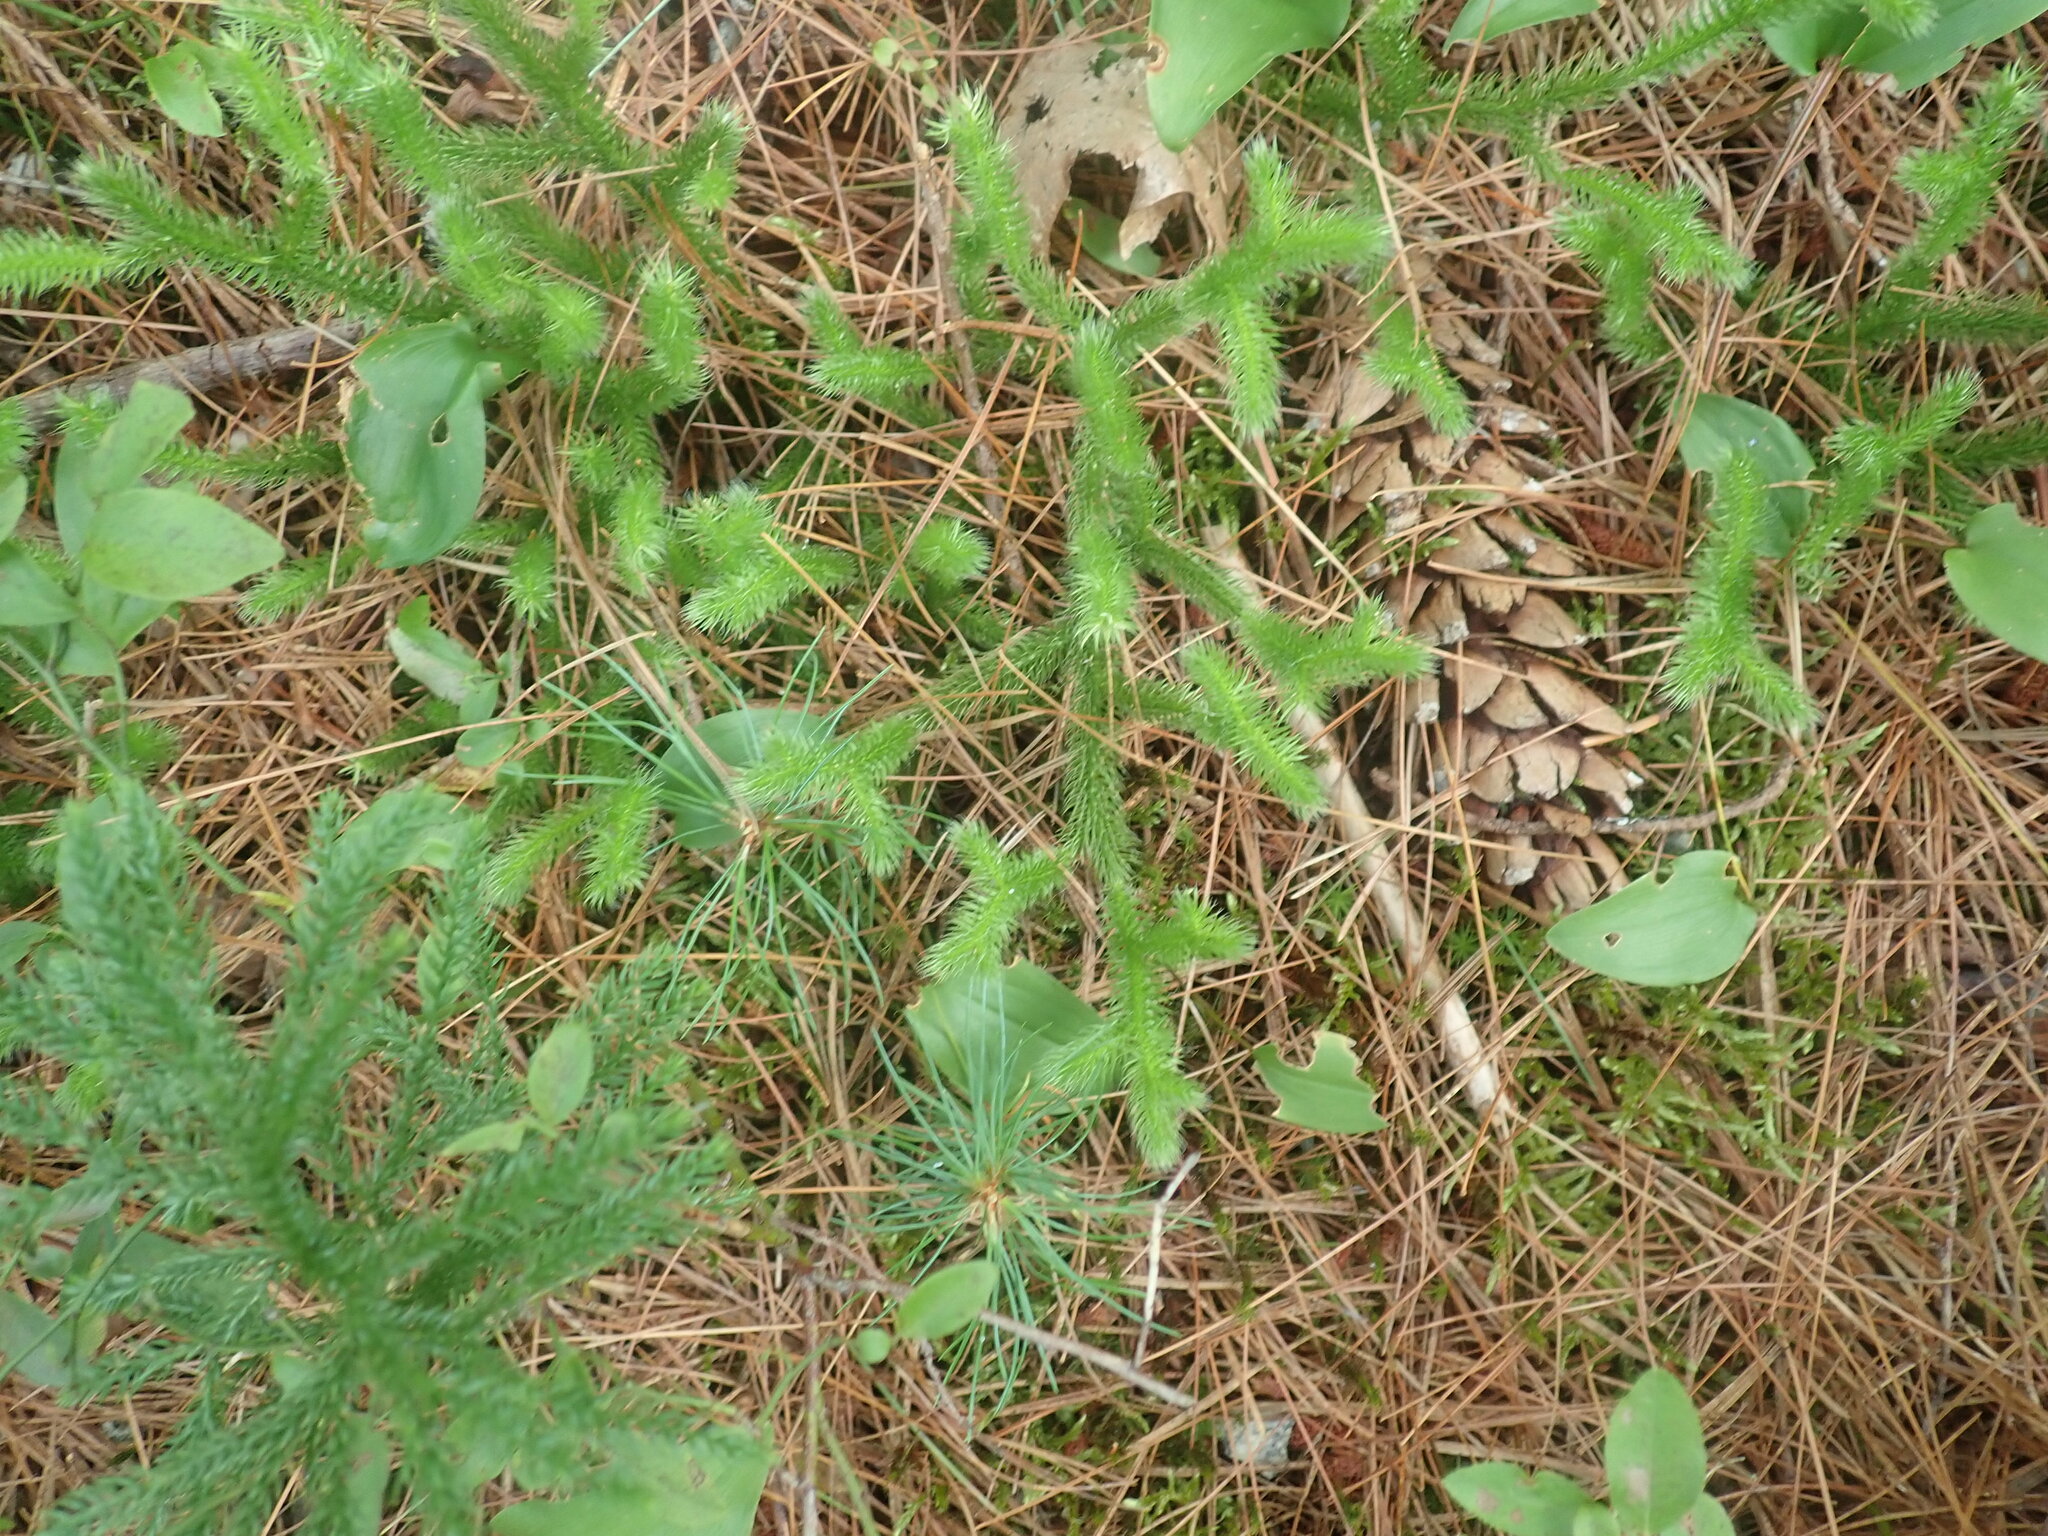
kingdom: Plantae
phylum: Tracheophyta
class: Lycopodiopsida
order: Lycopodiales
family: Lycopodiaceae
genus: Lycopodium
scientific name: Lycopodium clavatum
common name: Stag's-horn clubmoss
